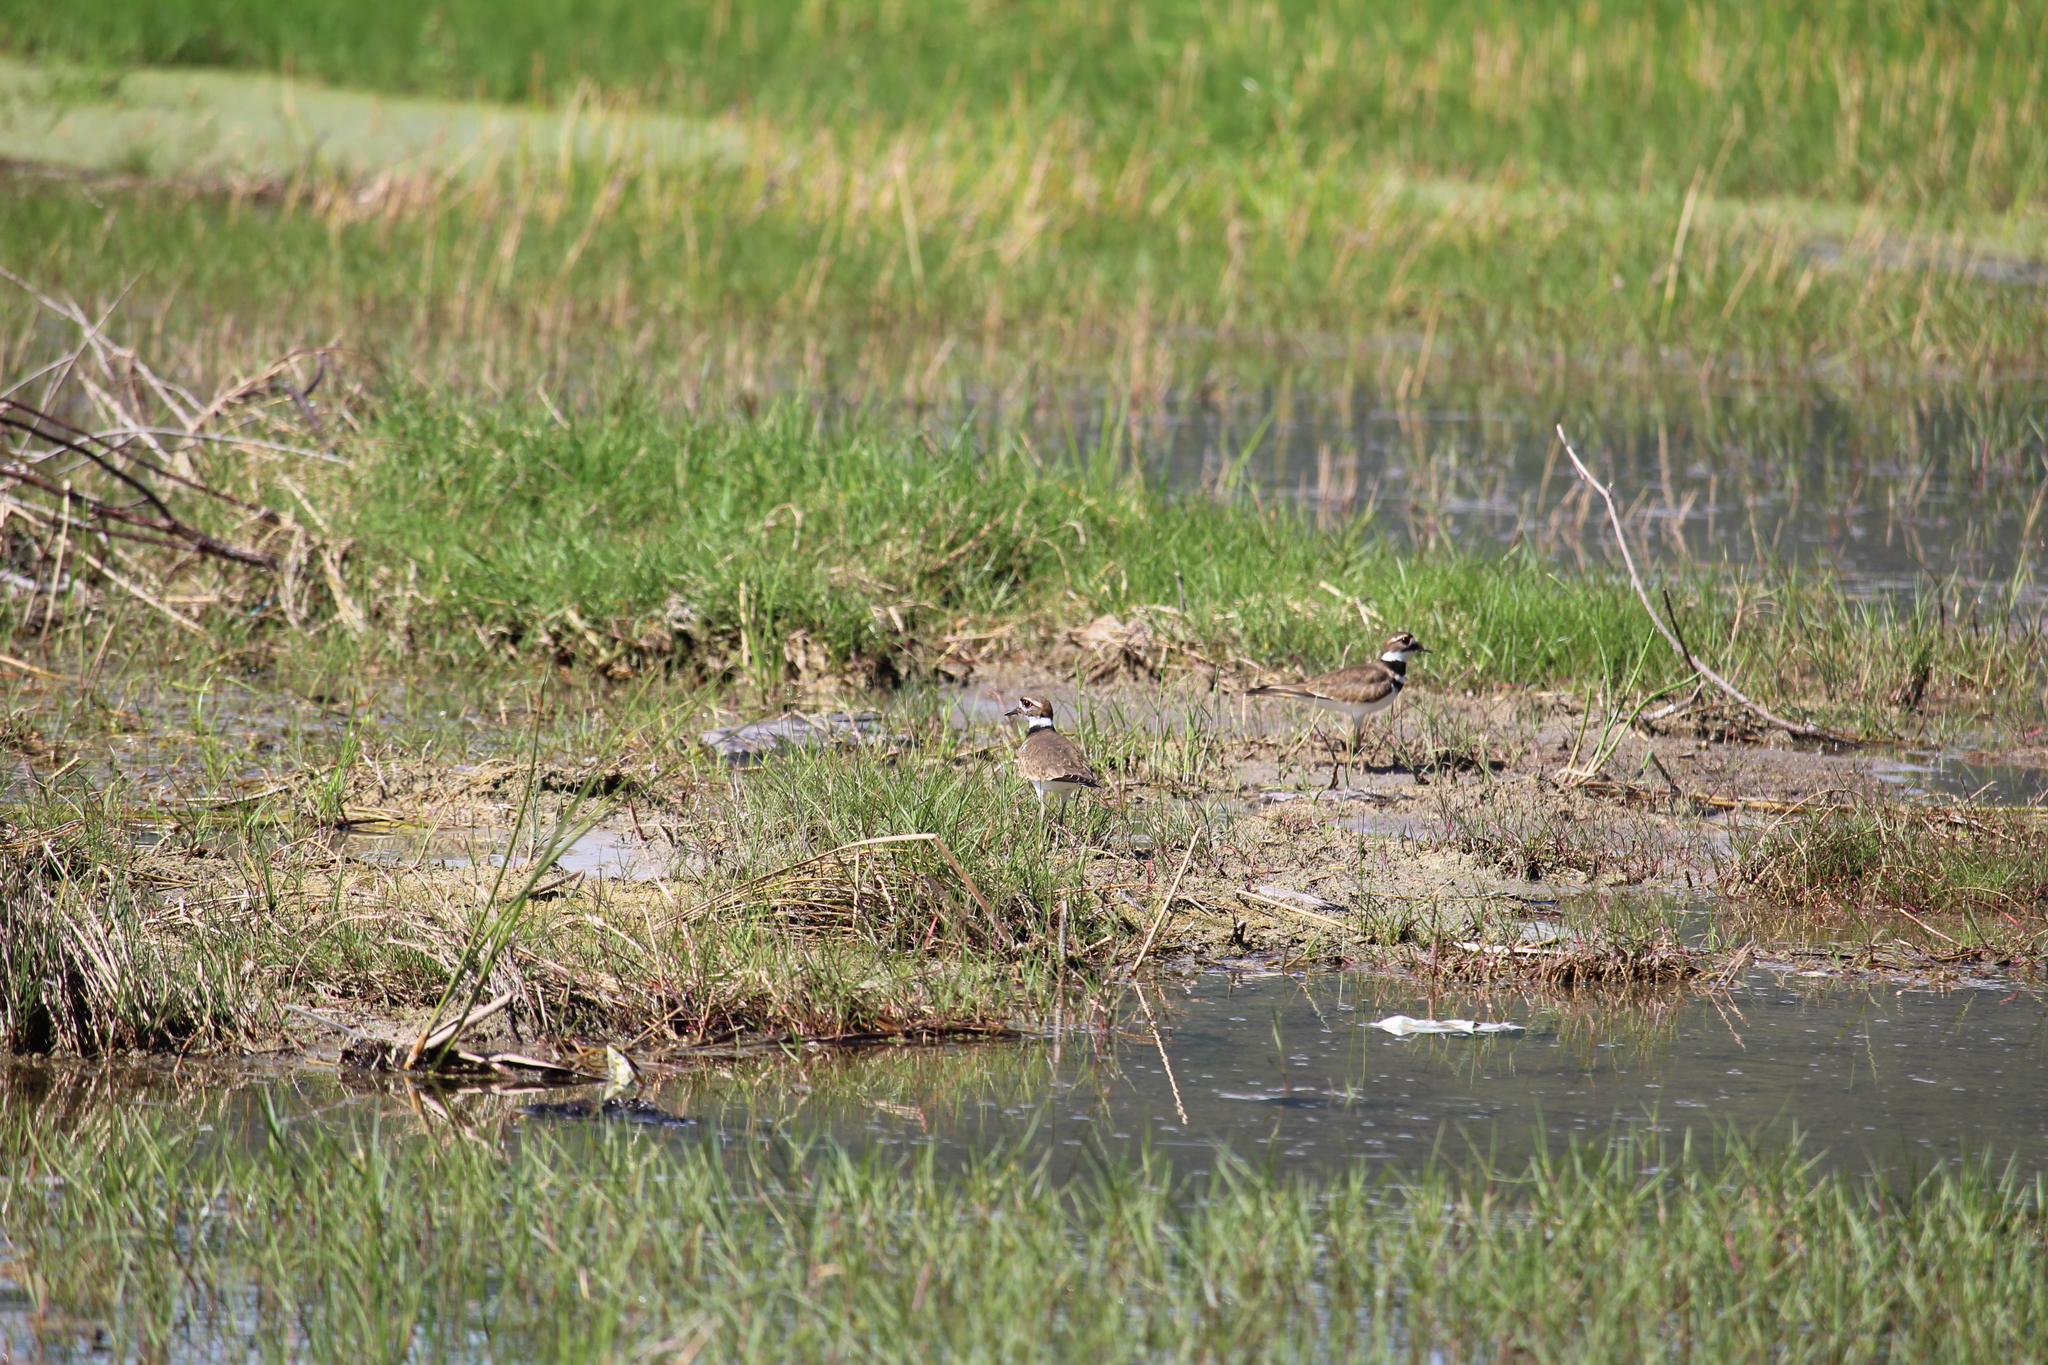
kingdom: Animalia
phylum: Chordata
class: Aves
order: Charadriiformes
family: Charadriidae
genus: Charadrius
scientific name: Charadrius vociferus
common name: Killdeer
